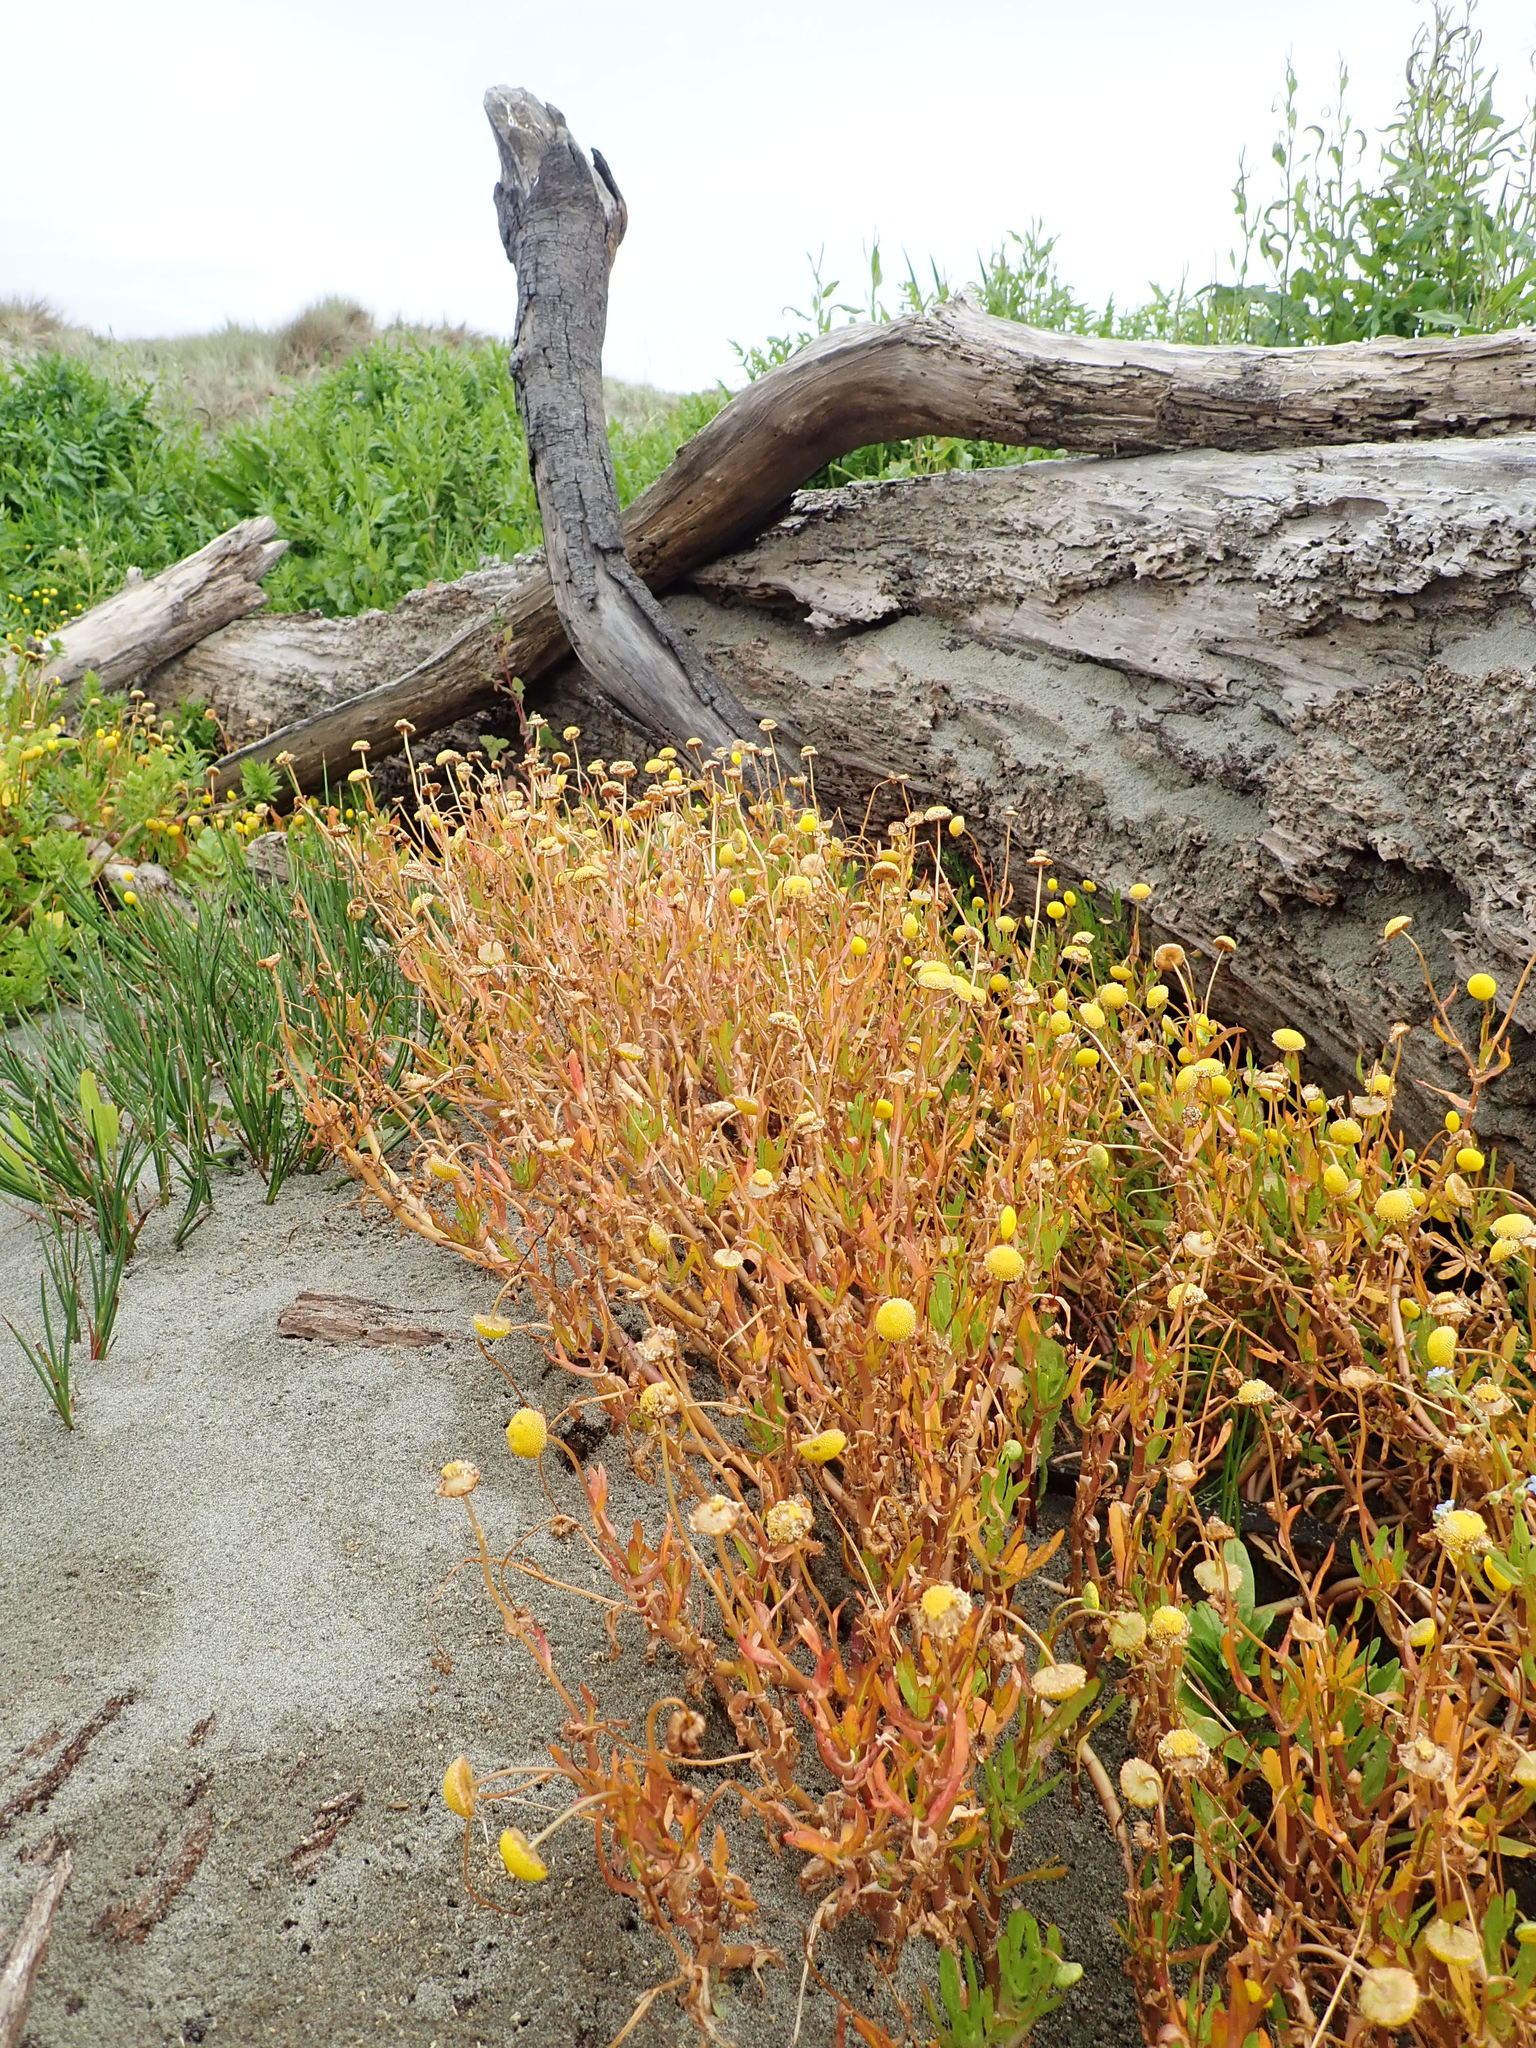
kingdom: Plantae
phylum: Tracheophyta
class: Magnoliopsida
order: Asterales
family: Asteraceae
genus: Cotula
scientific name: Cotula coronopifolia
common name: Buttonweed
